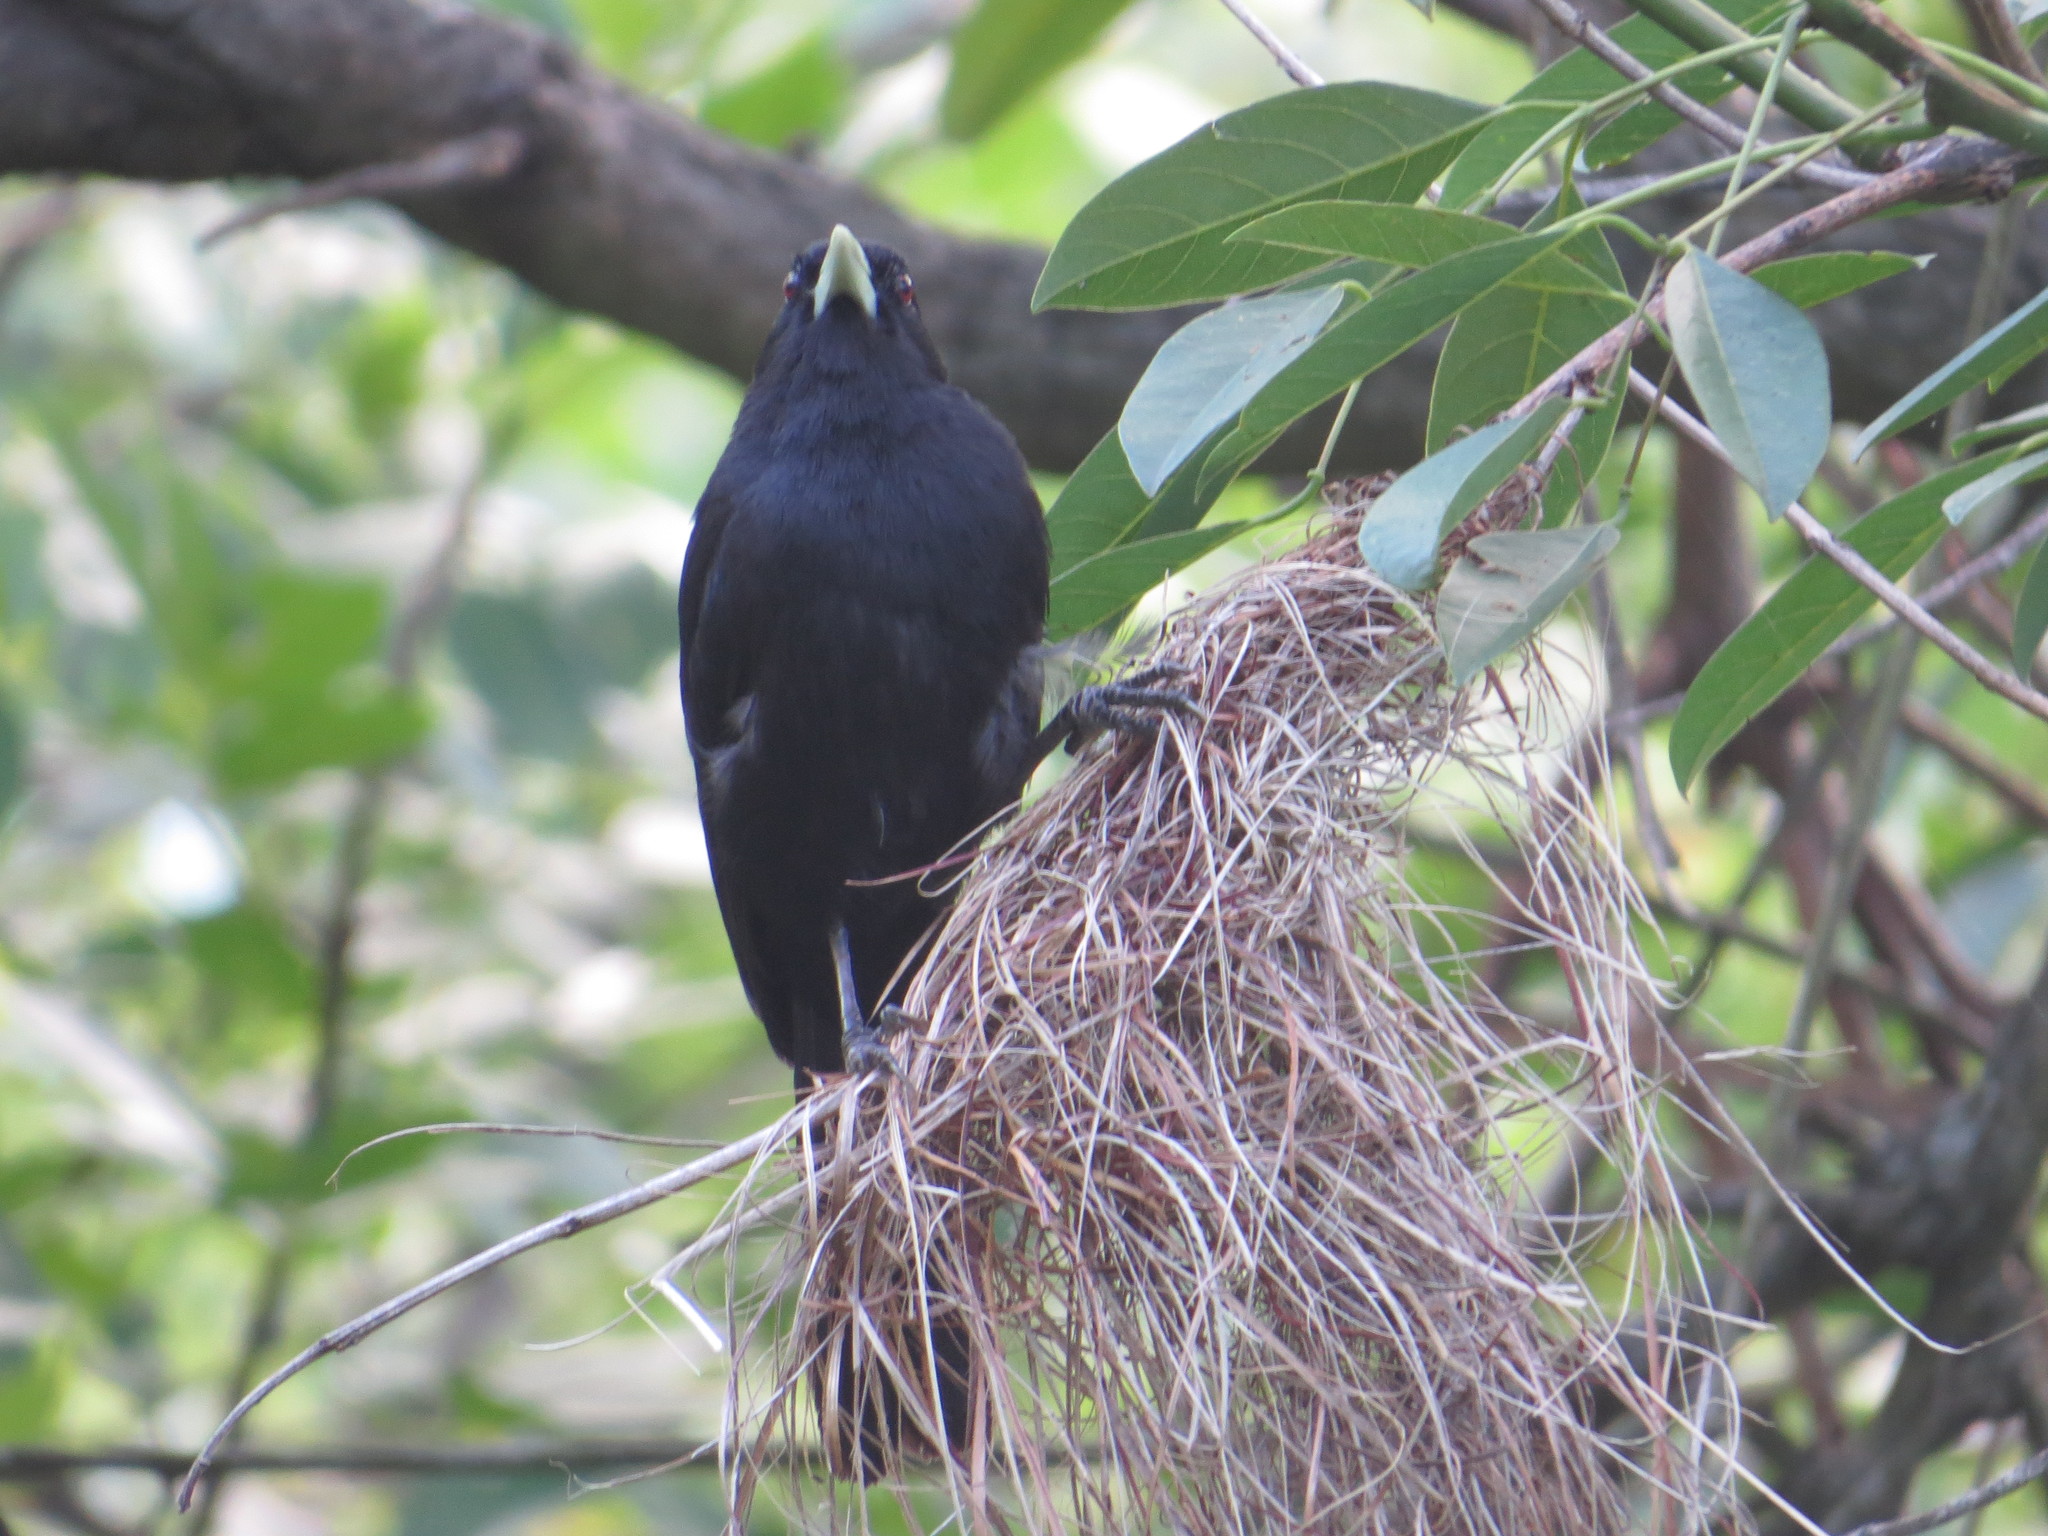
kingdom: Animalia
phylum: Chordata
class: Aves
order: Passeriformes
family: Icteridae
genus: Cacicus
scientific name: Cacicus solitarius
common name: Solitary cacique
